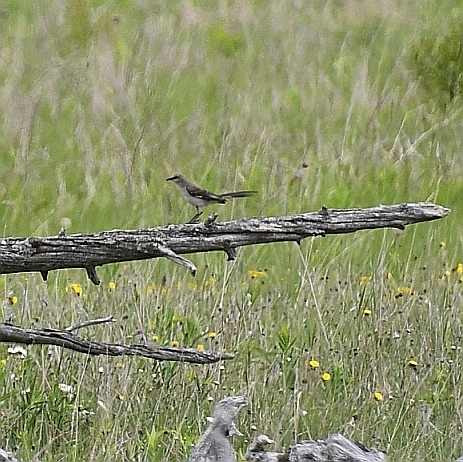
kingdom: Animalia
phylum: Chordata
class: Aves
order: Passeriformes
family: Mimidae
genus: Mimus
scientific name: Mimus polyglottos
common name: Northern mockingbird
